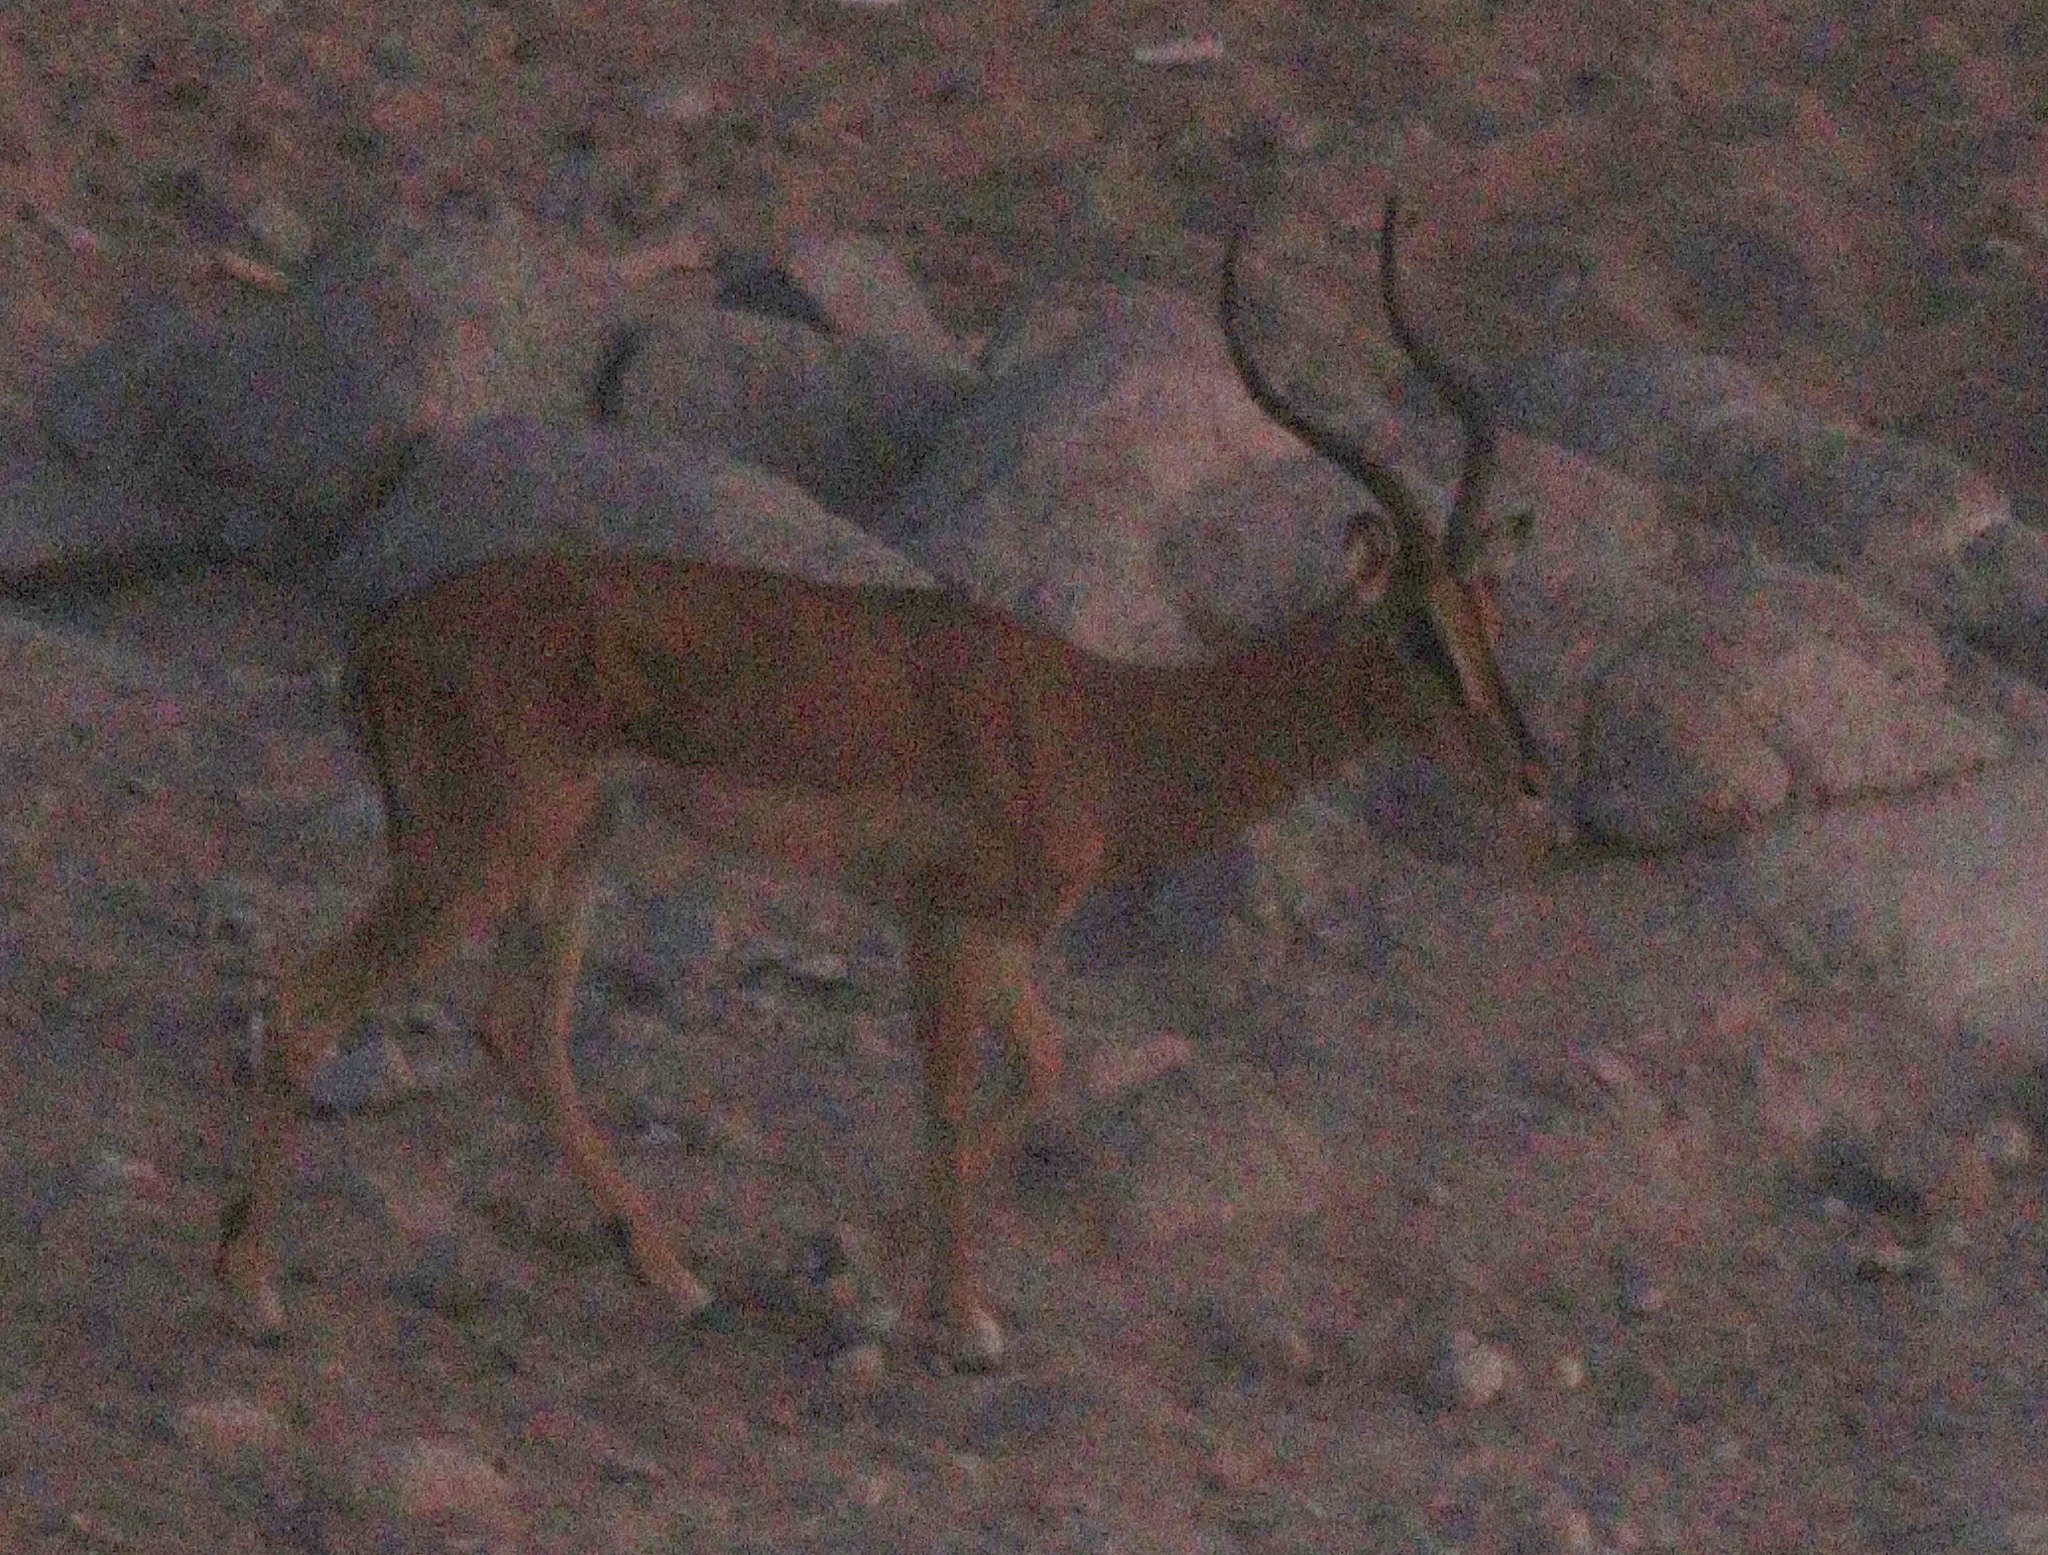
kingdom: Animalia
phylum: Chordata
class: Mammalia
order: Artiodactyla
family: Bovidae
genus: Aepyceros
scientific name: Aepyceros melampus
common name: Impala
